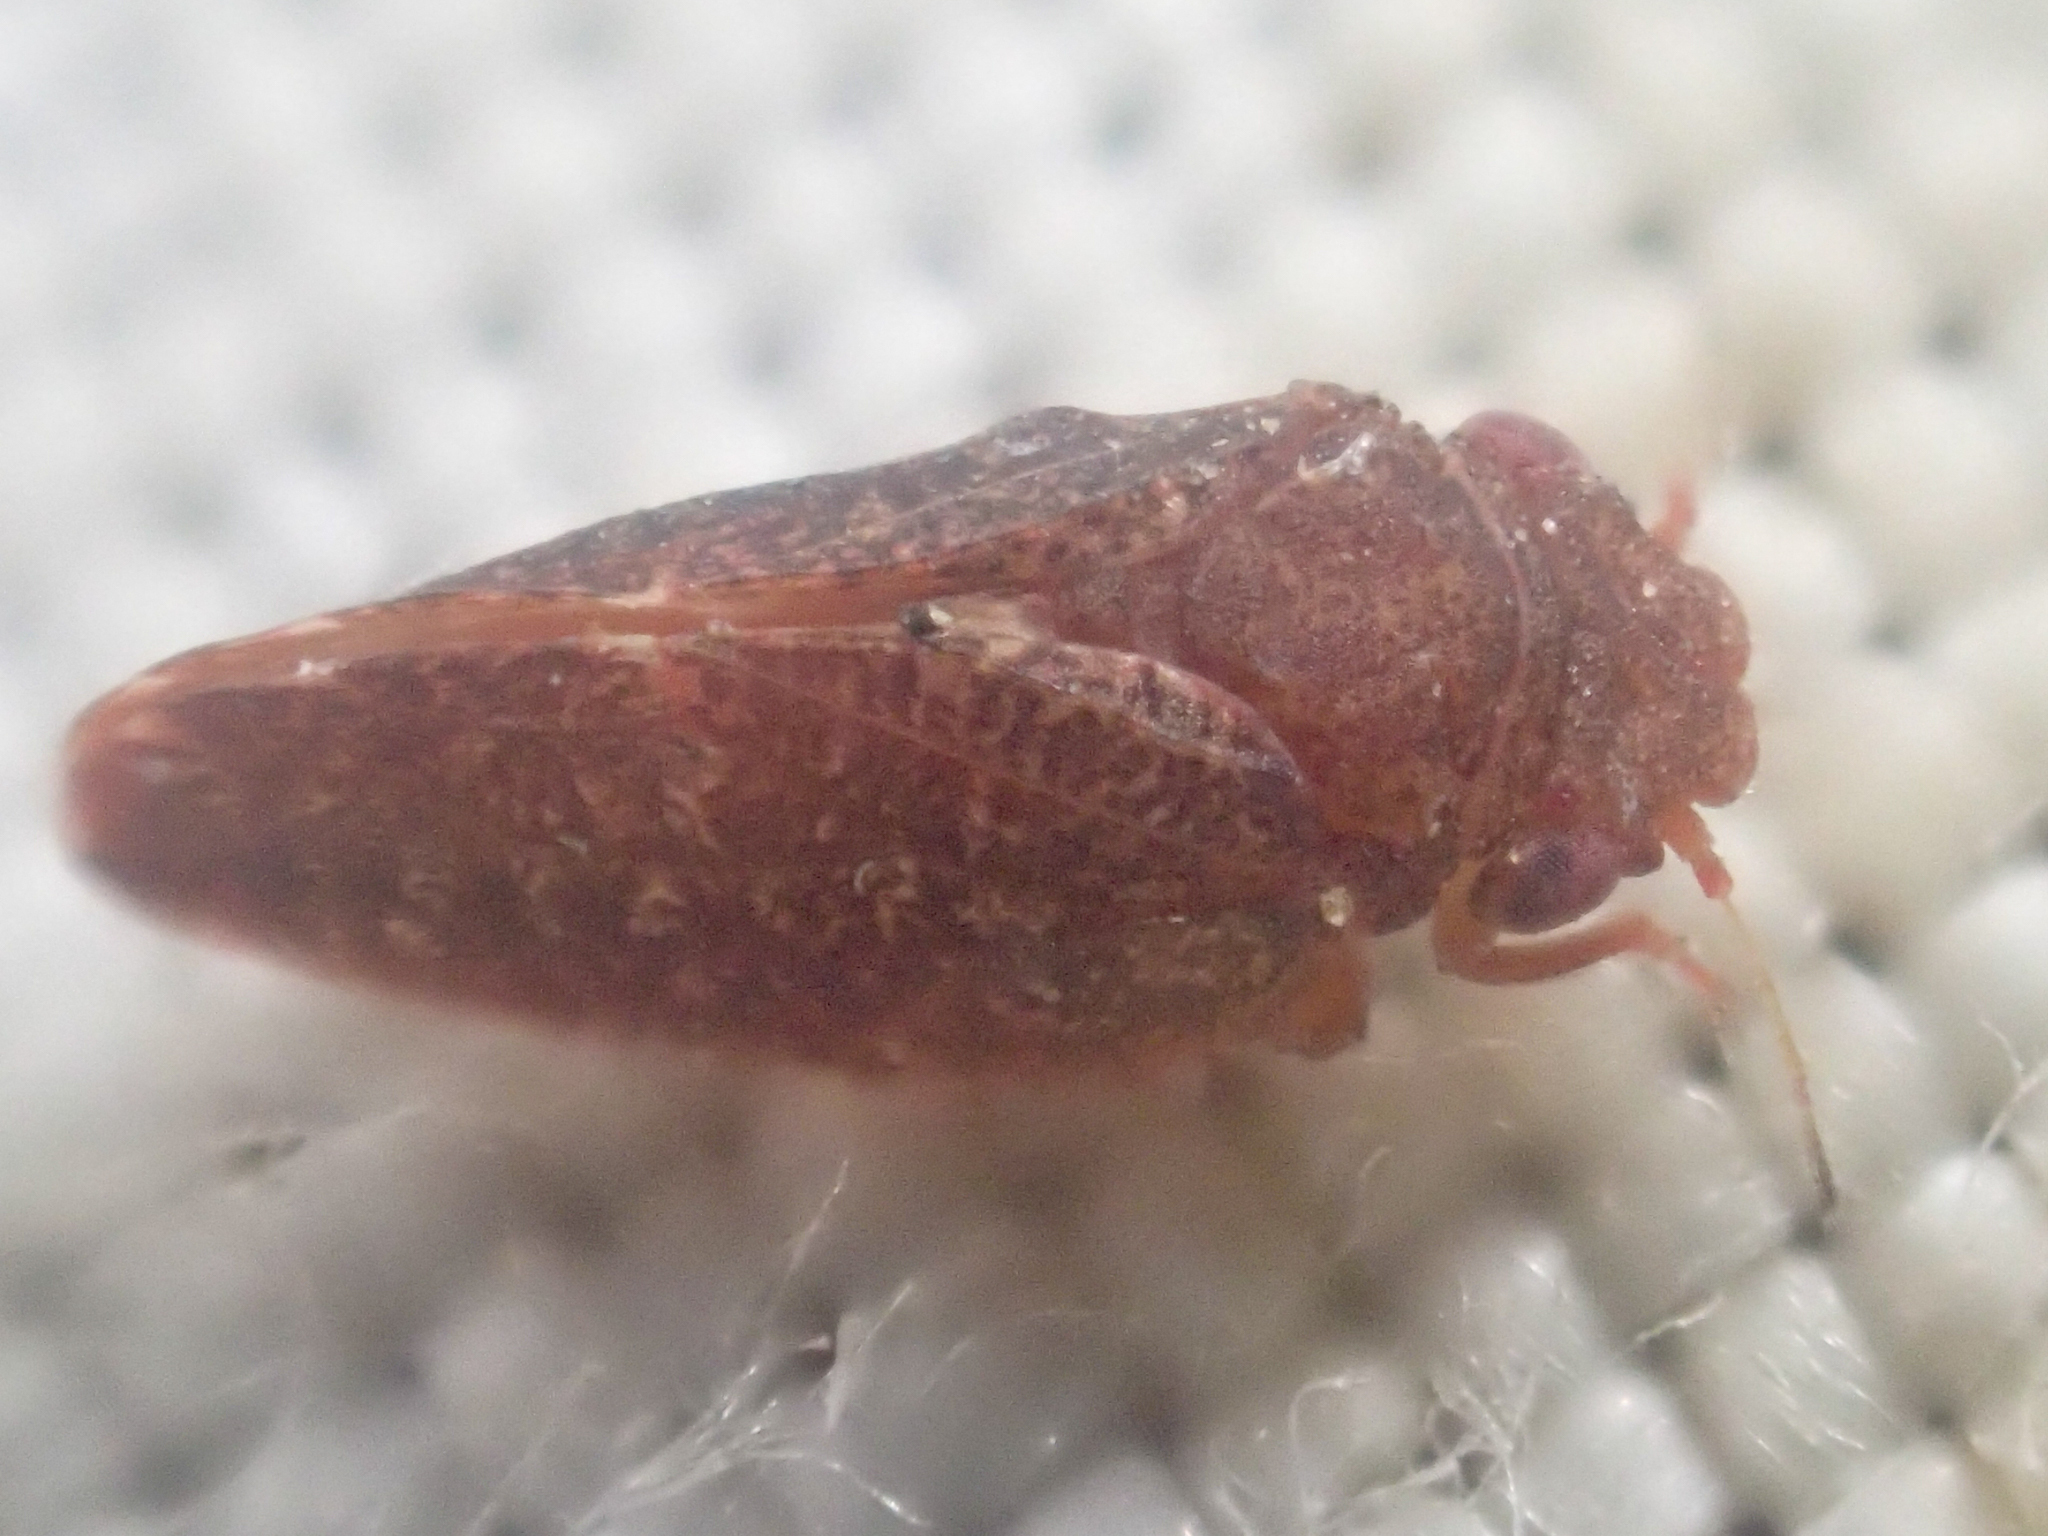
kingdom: Animalia
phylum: Arthropoda
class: Insecta
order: Hemiptera
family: Liviidae
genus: Neophyllura
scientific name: Neophyllura arctostaphyli
